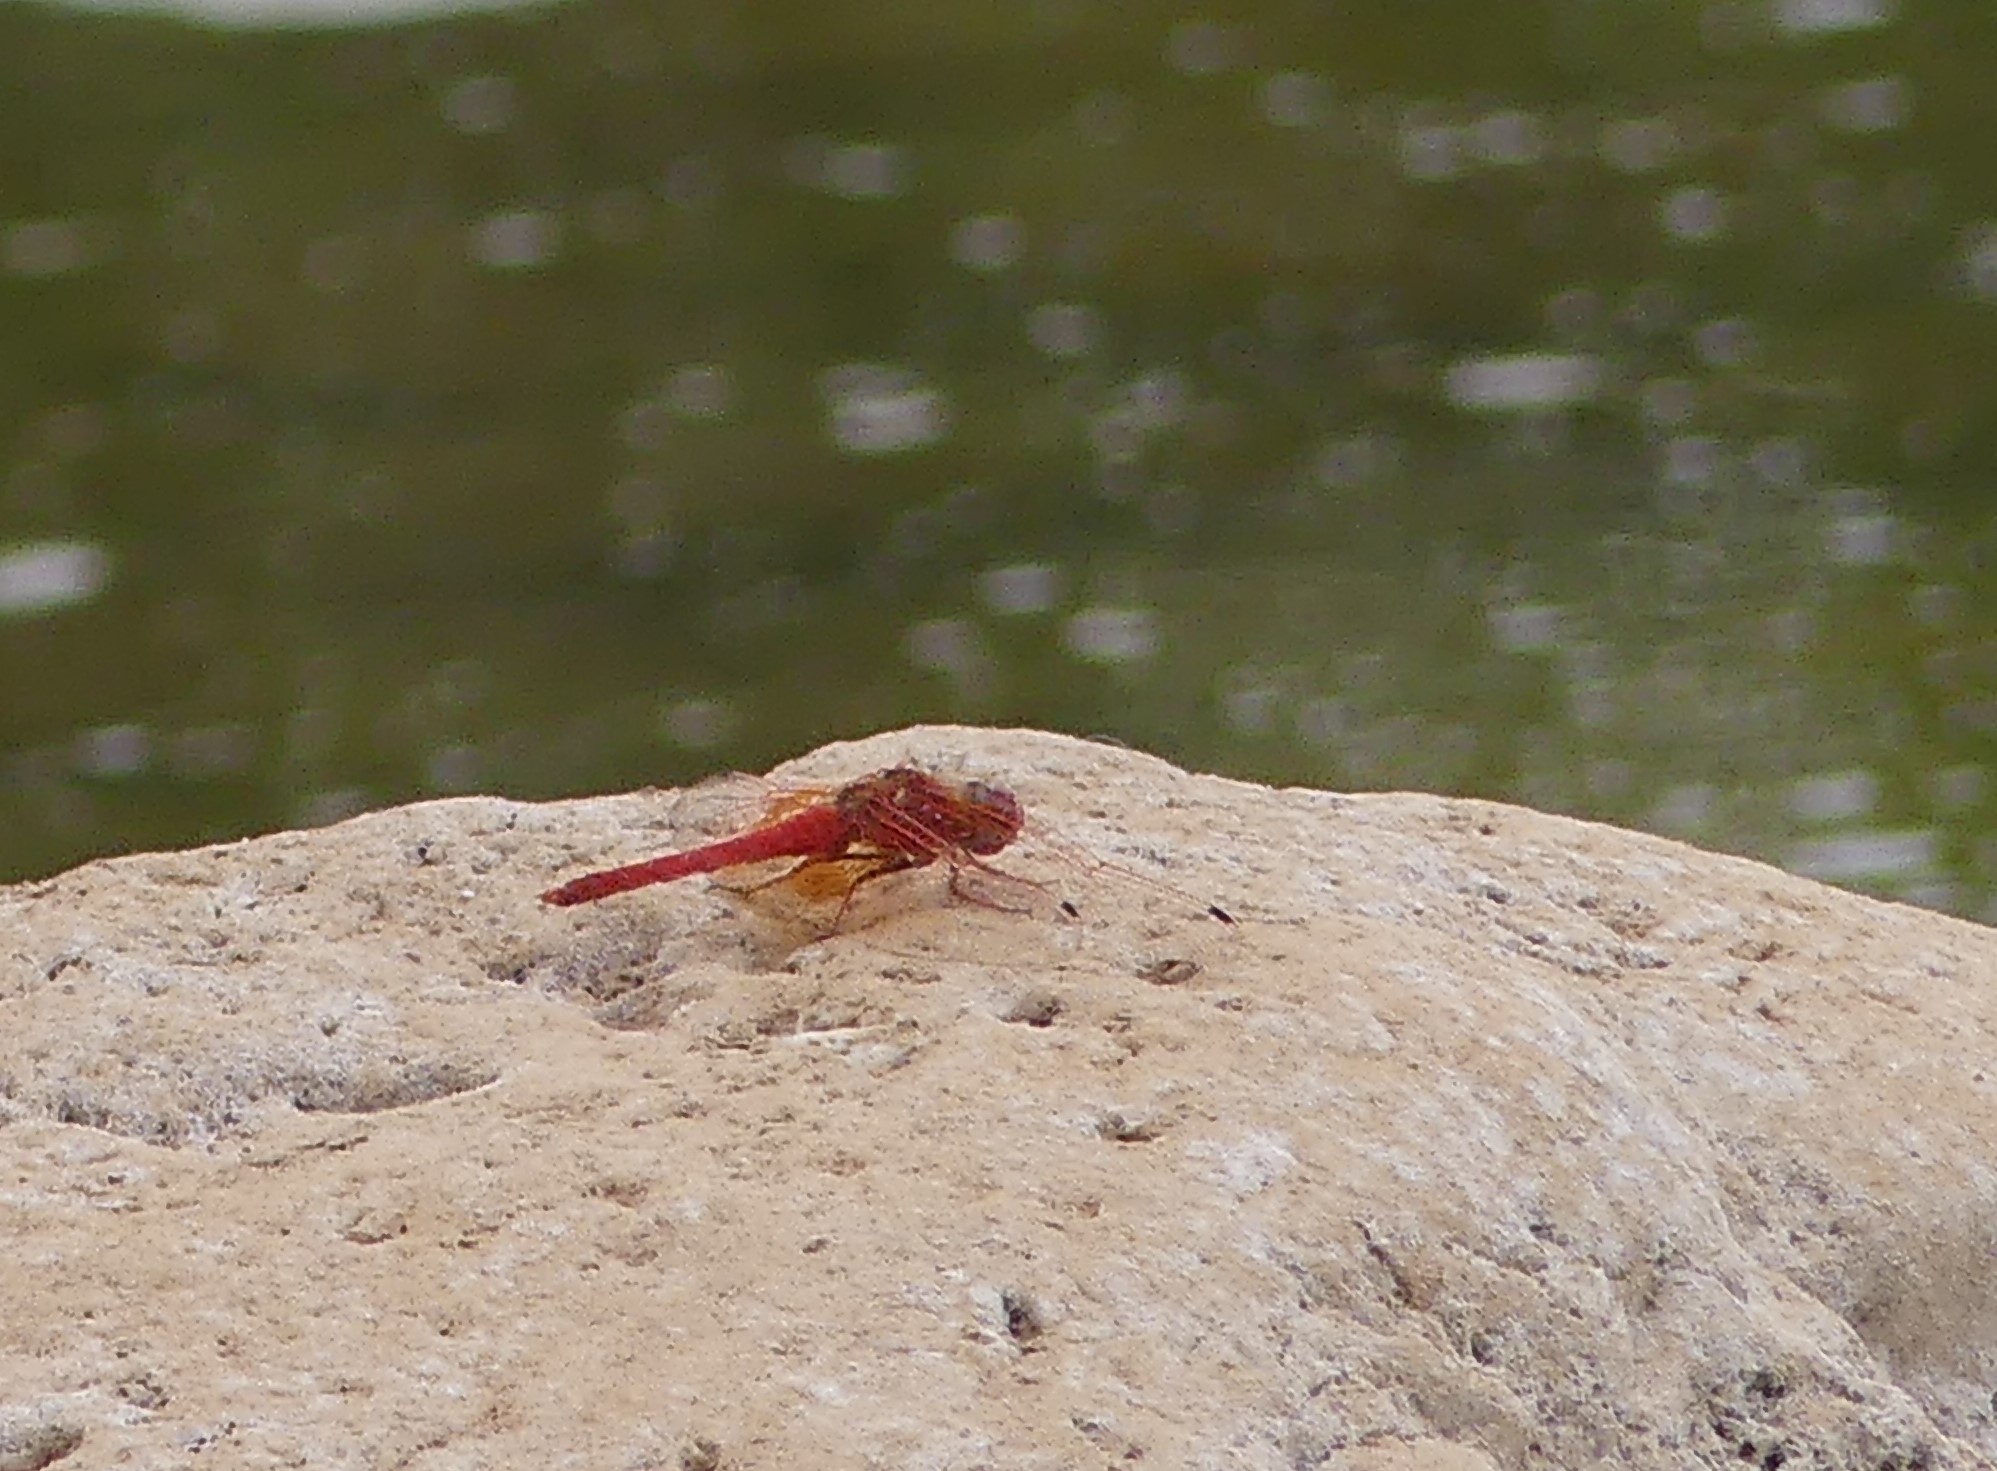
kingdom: Animalia
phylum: Arthropoda
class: Insecta
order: Odonata
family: Libellulidae
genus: Trithemis
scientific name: Trithemis kirbyi
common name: Kirby's dropwing
